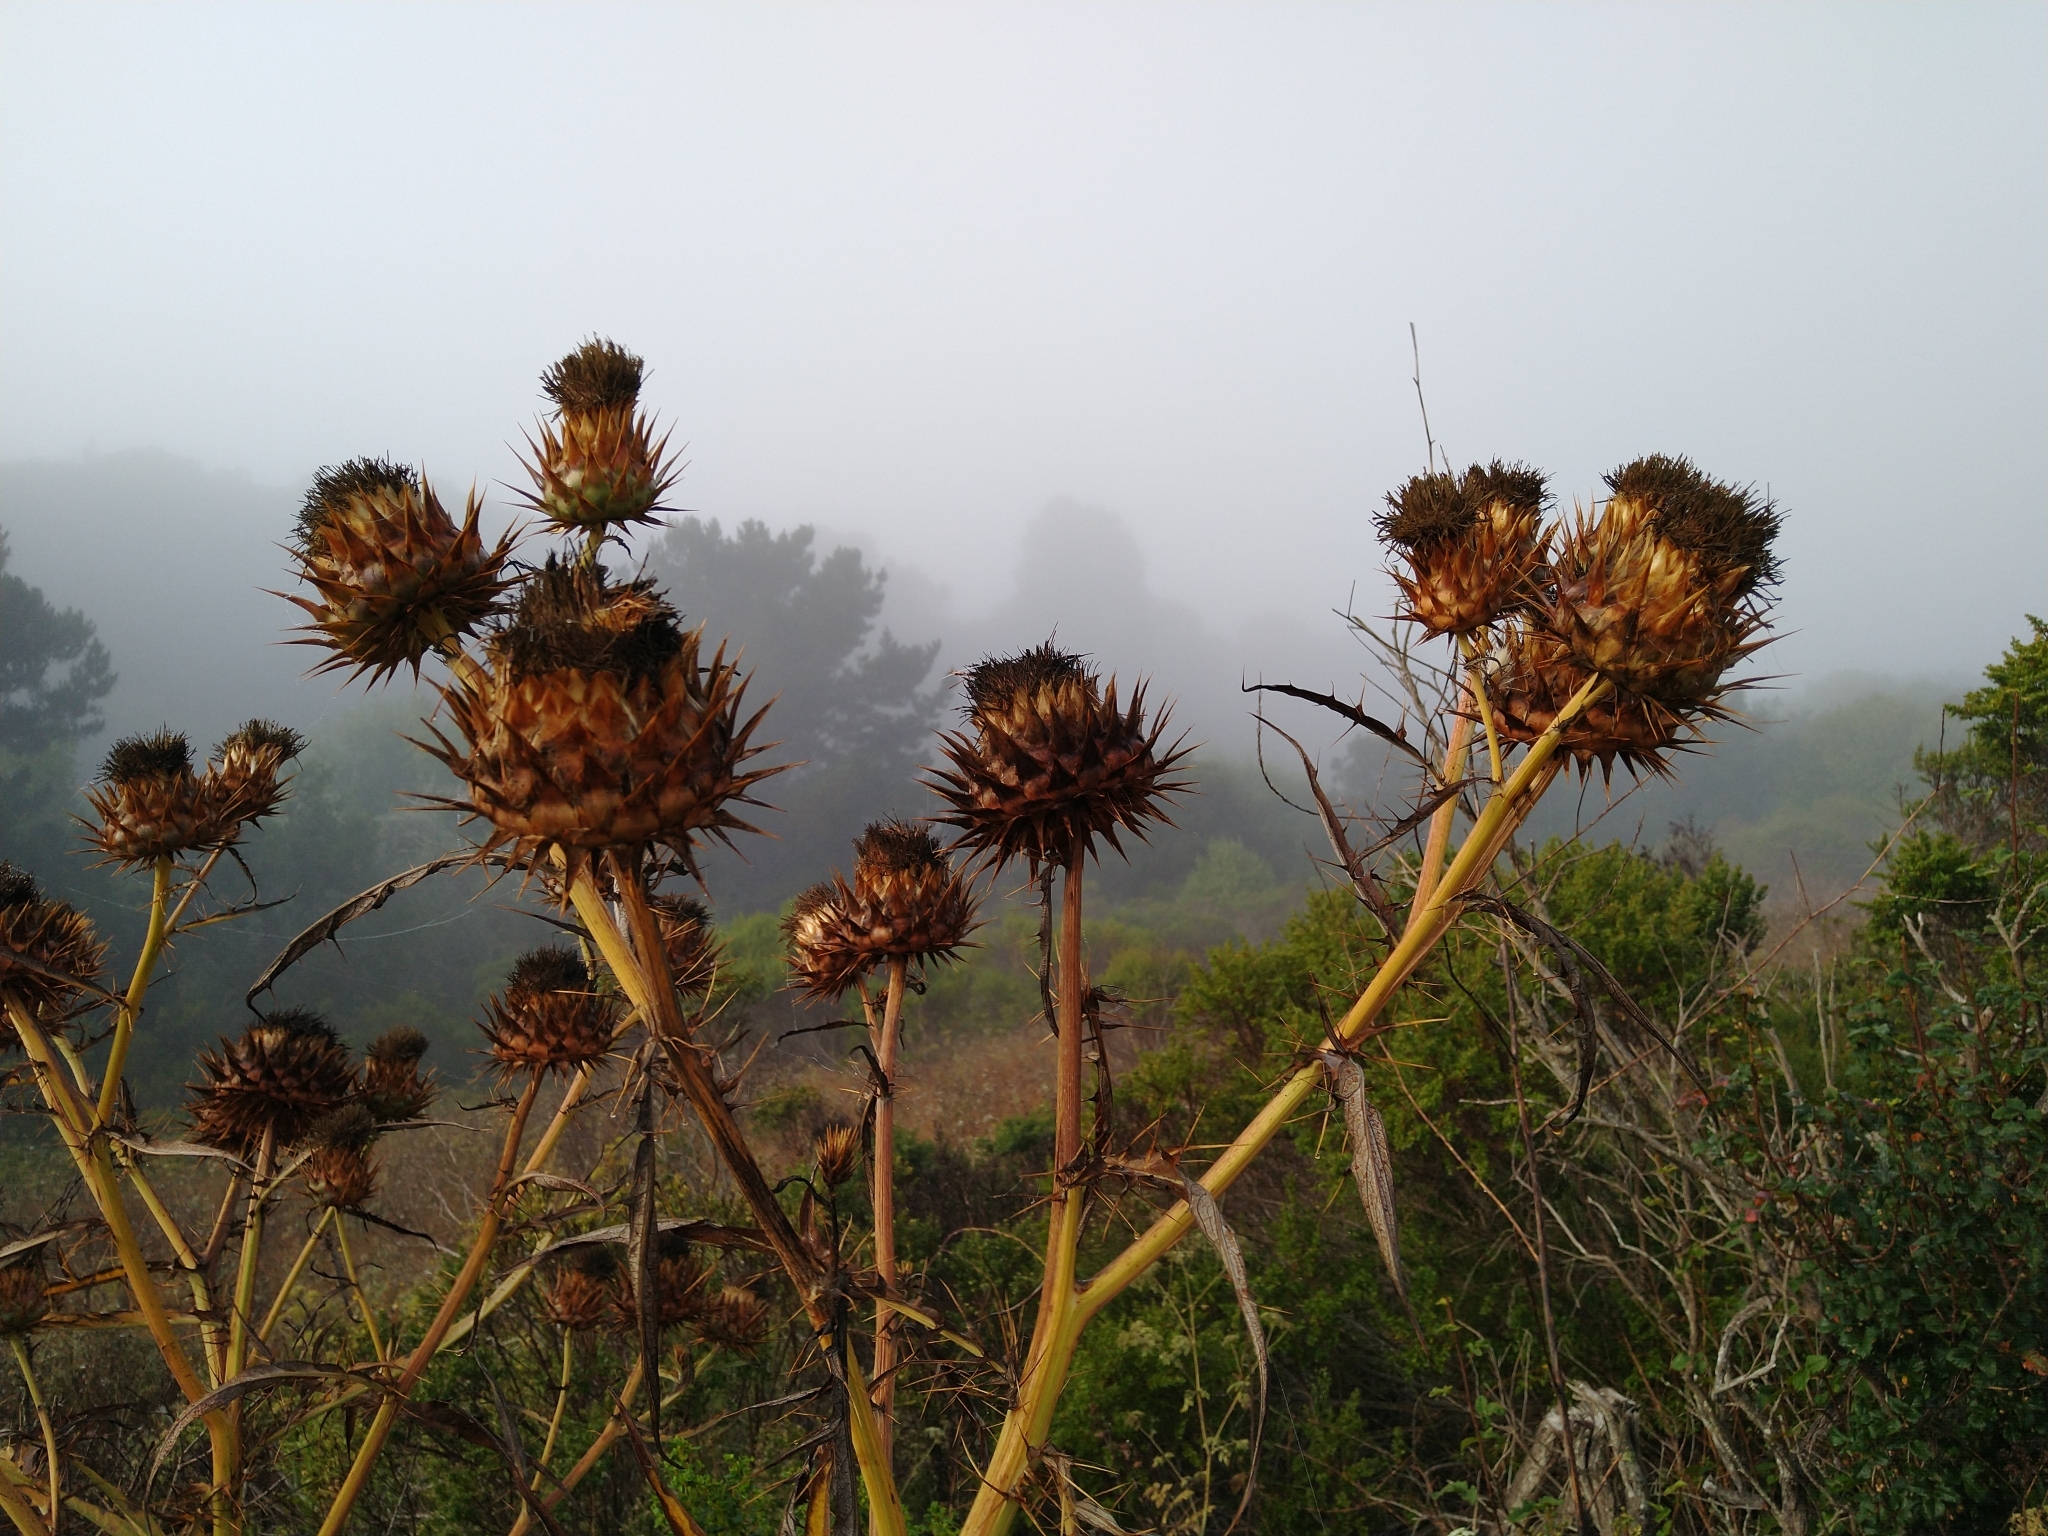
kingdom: Plantae
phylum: Tracheophyta
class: Magnoliopsida
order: Asterales
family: Asteraceae
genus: Cynara
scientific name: Cynara cardunculus
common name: Globe artichoke
